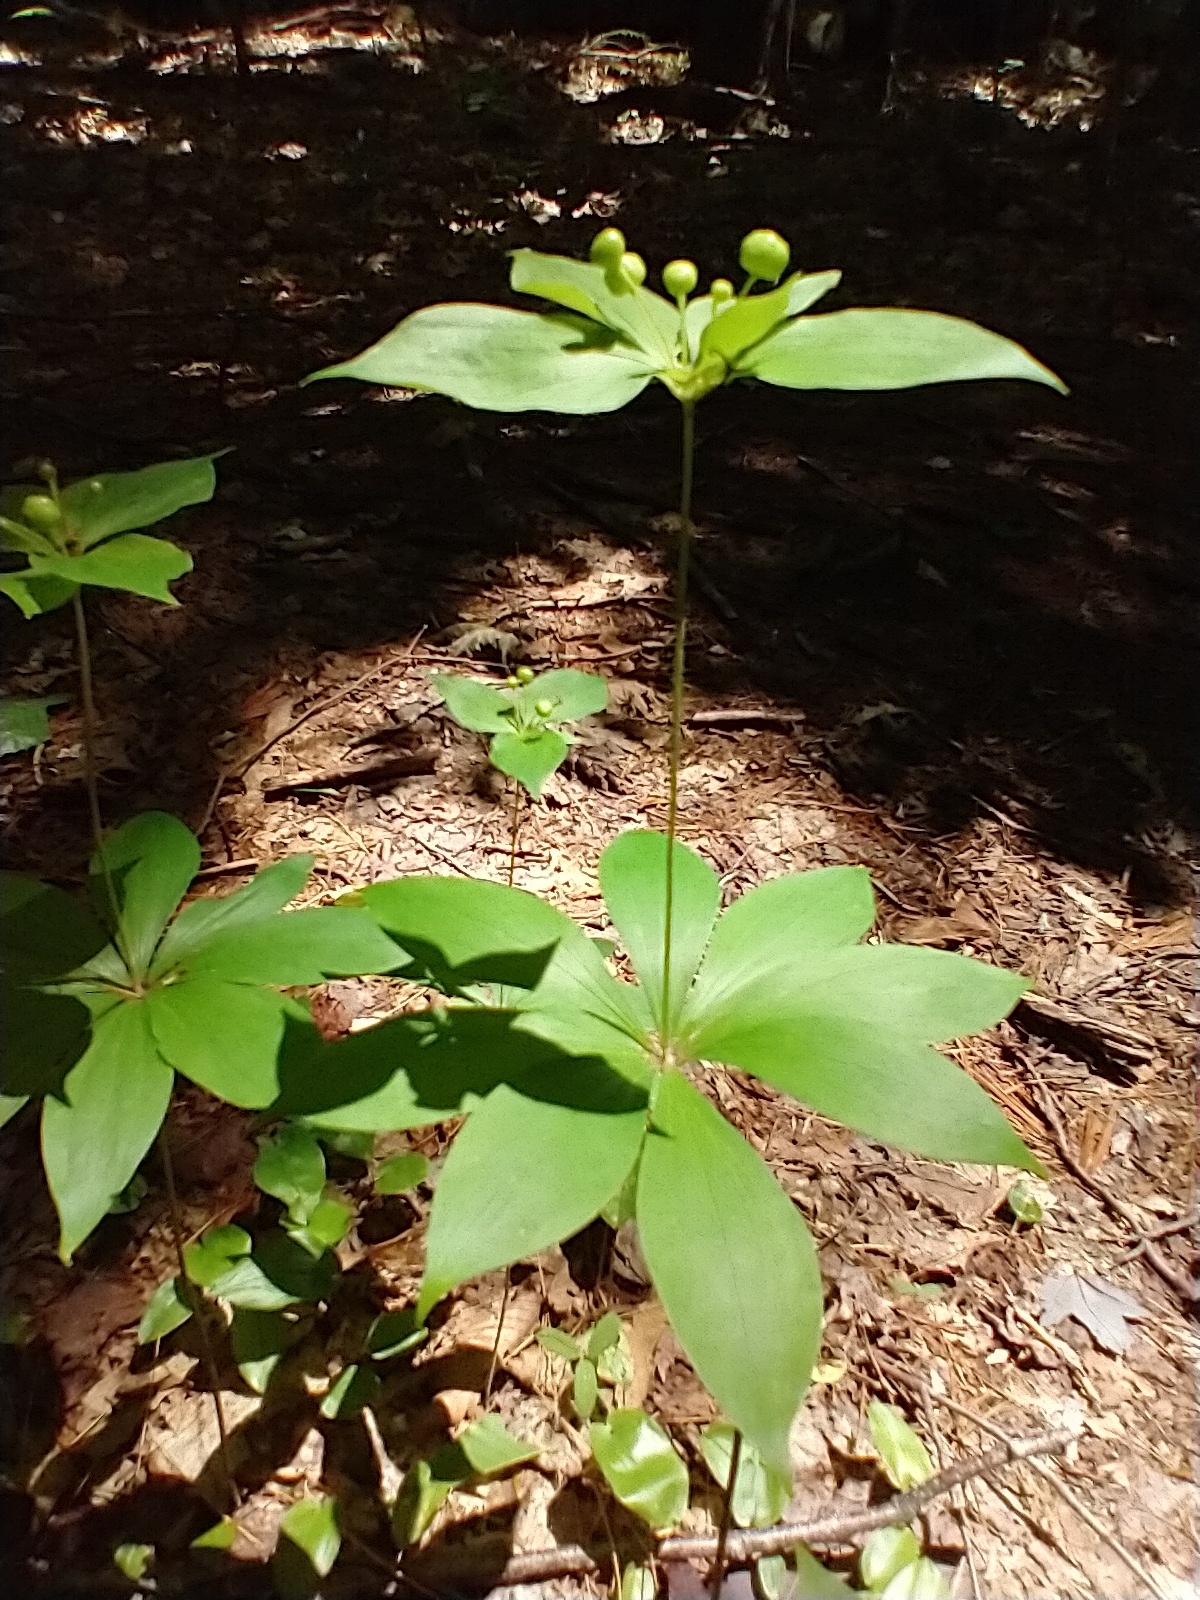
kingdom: Plantae
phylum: Tracheophyta
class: Liliopsida
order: Liliales
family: Liliaceae
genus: Medeola
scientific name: Medeola virginiana
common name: Indian cucumber-root
